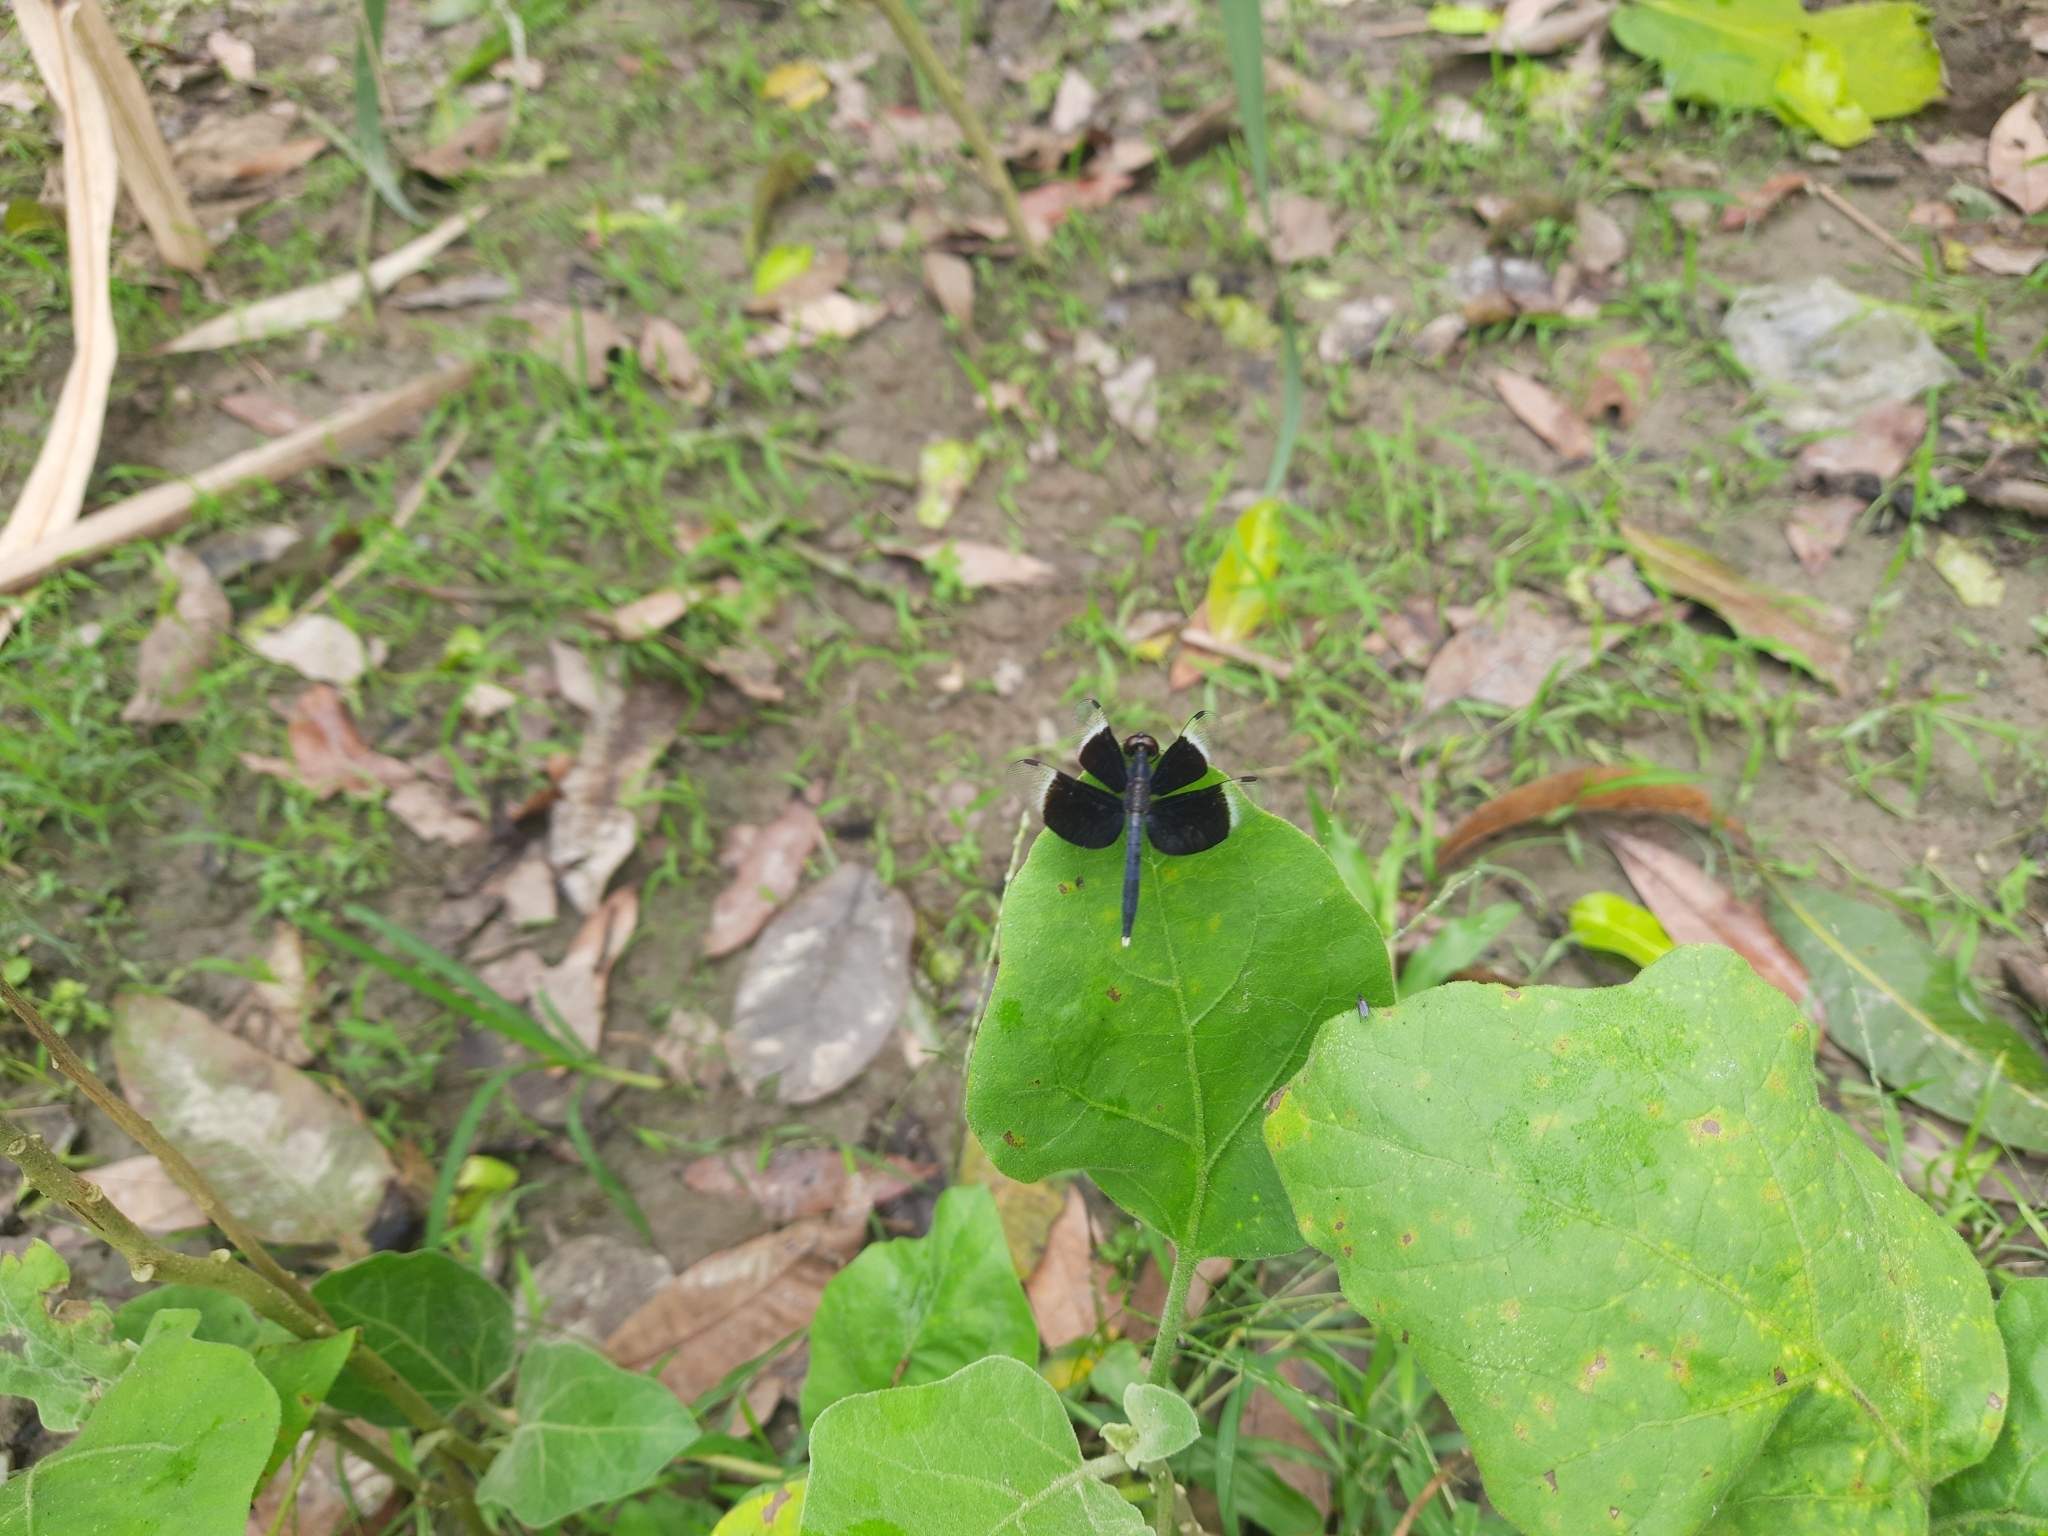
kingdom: Animalia
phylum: Arthropoda
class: Insecta
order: Odonata
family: Libellulidae
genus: Neurothemis
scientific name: Neurothemis tullia
